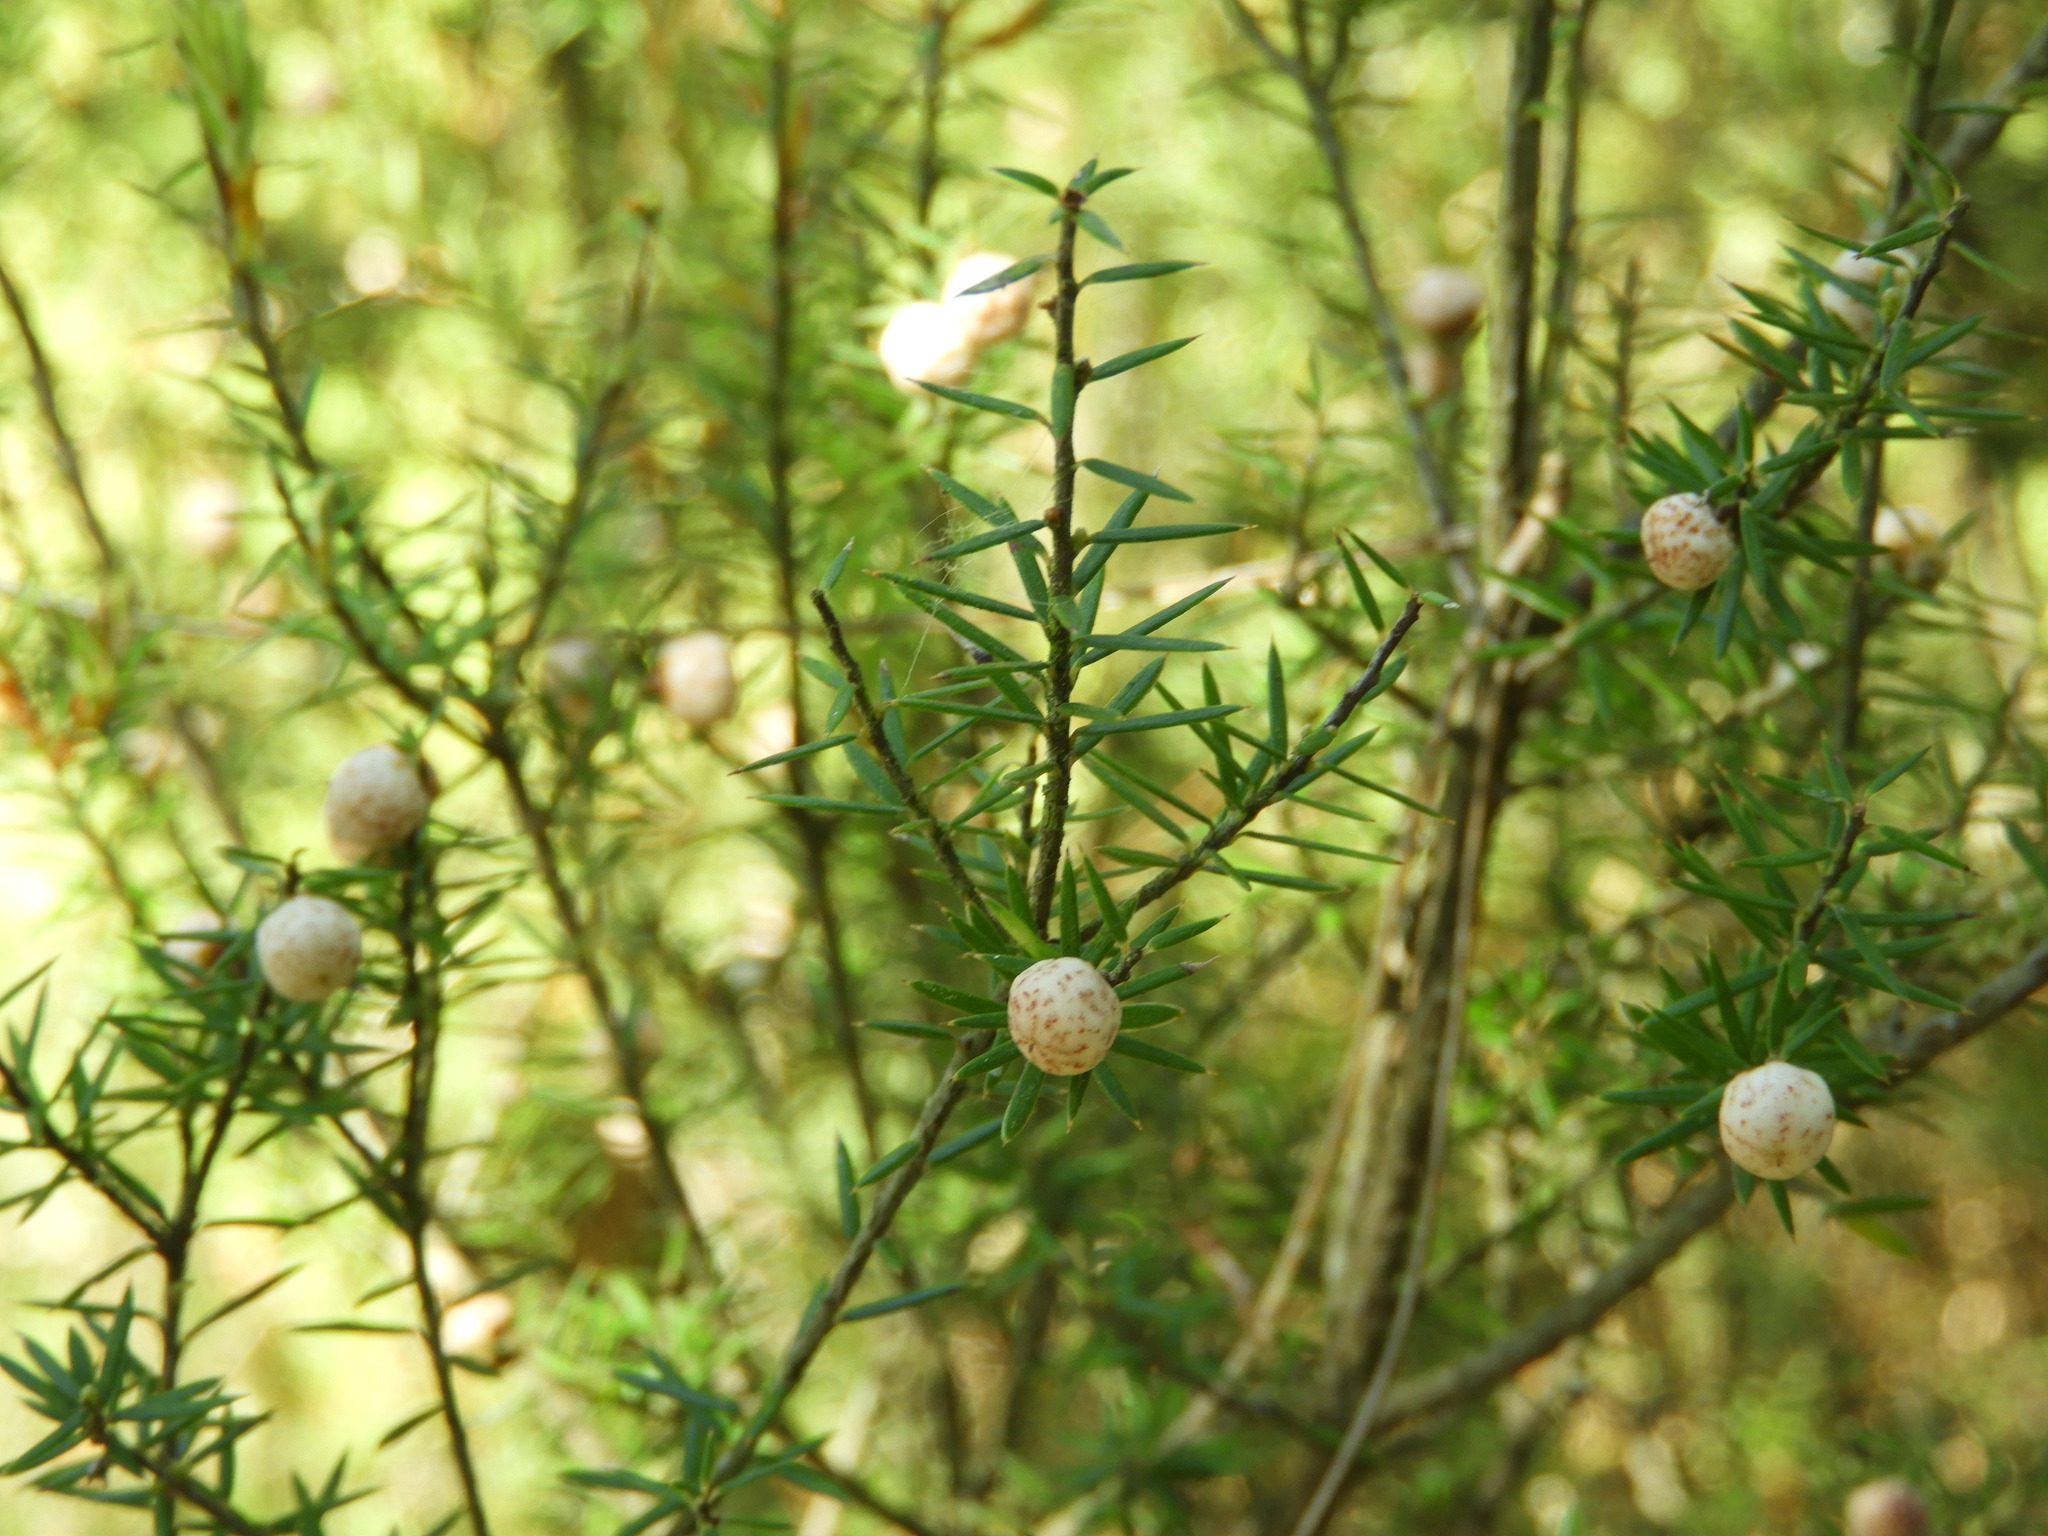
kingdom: Plantae
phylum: Tracheophyta
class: Magnoliopsida
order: Ericales
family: Ericaceae
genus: Leptecophylla
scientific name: Leptecophylla juniperina
